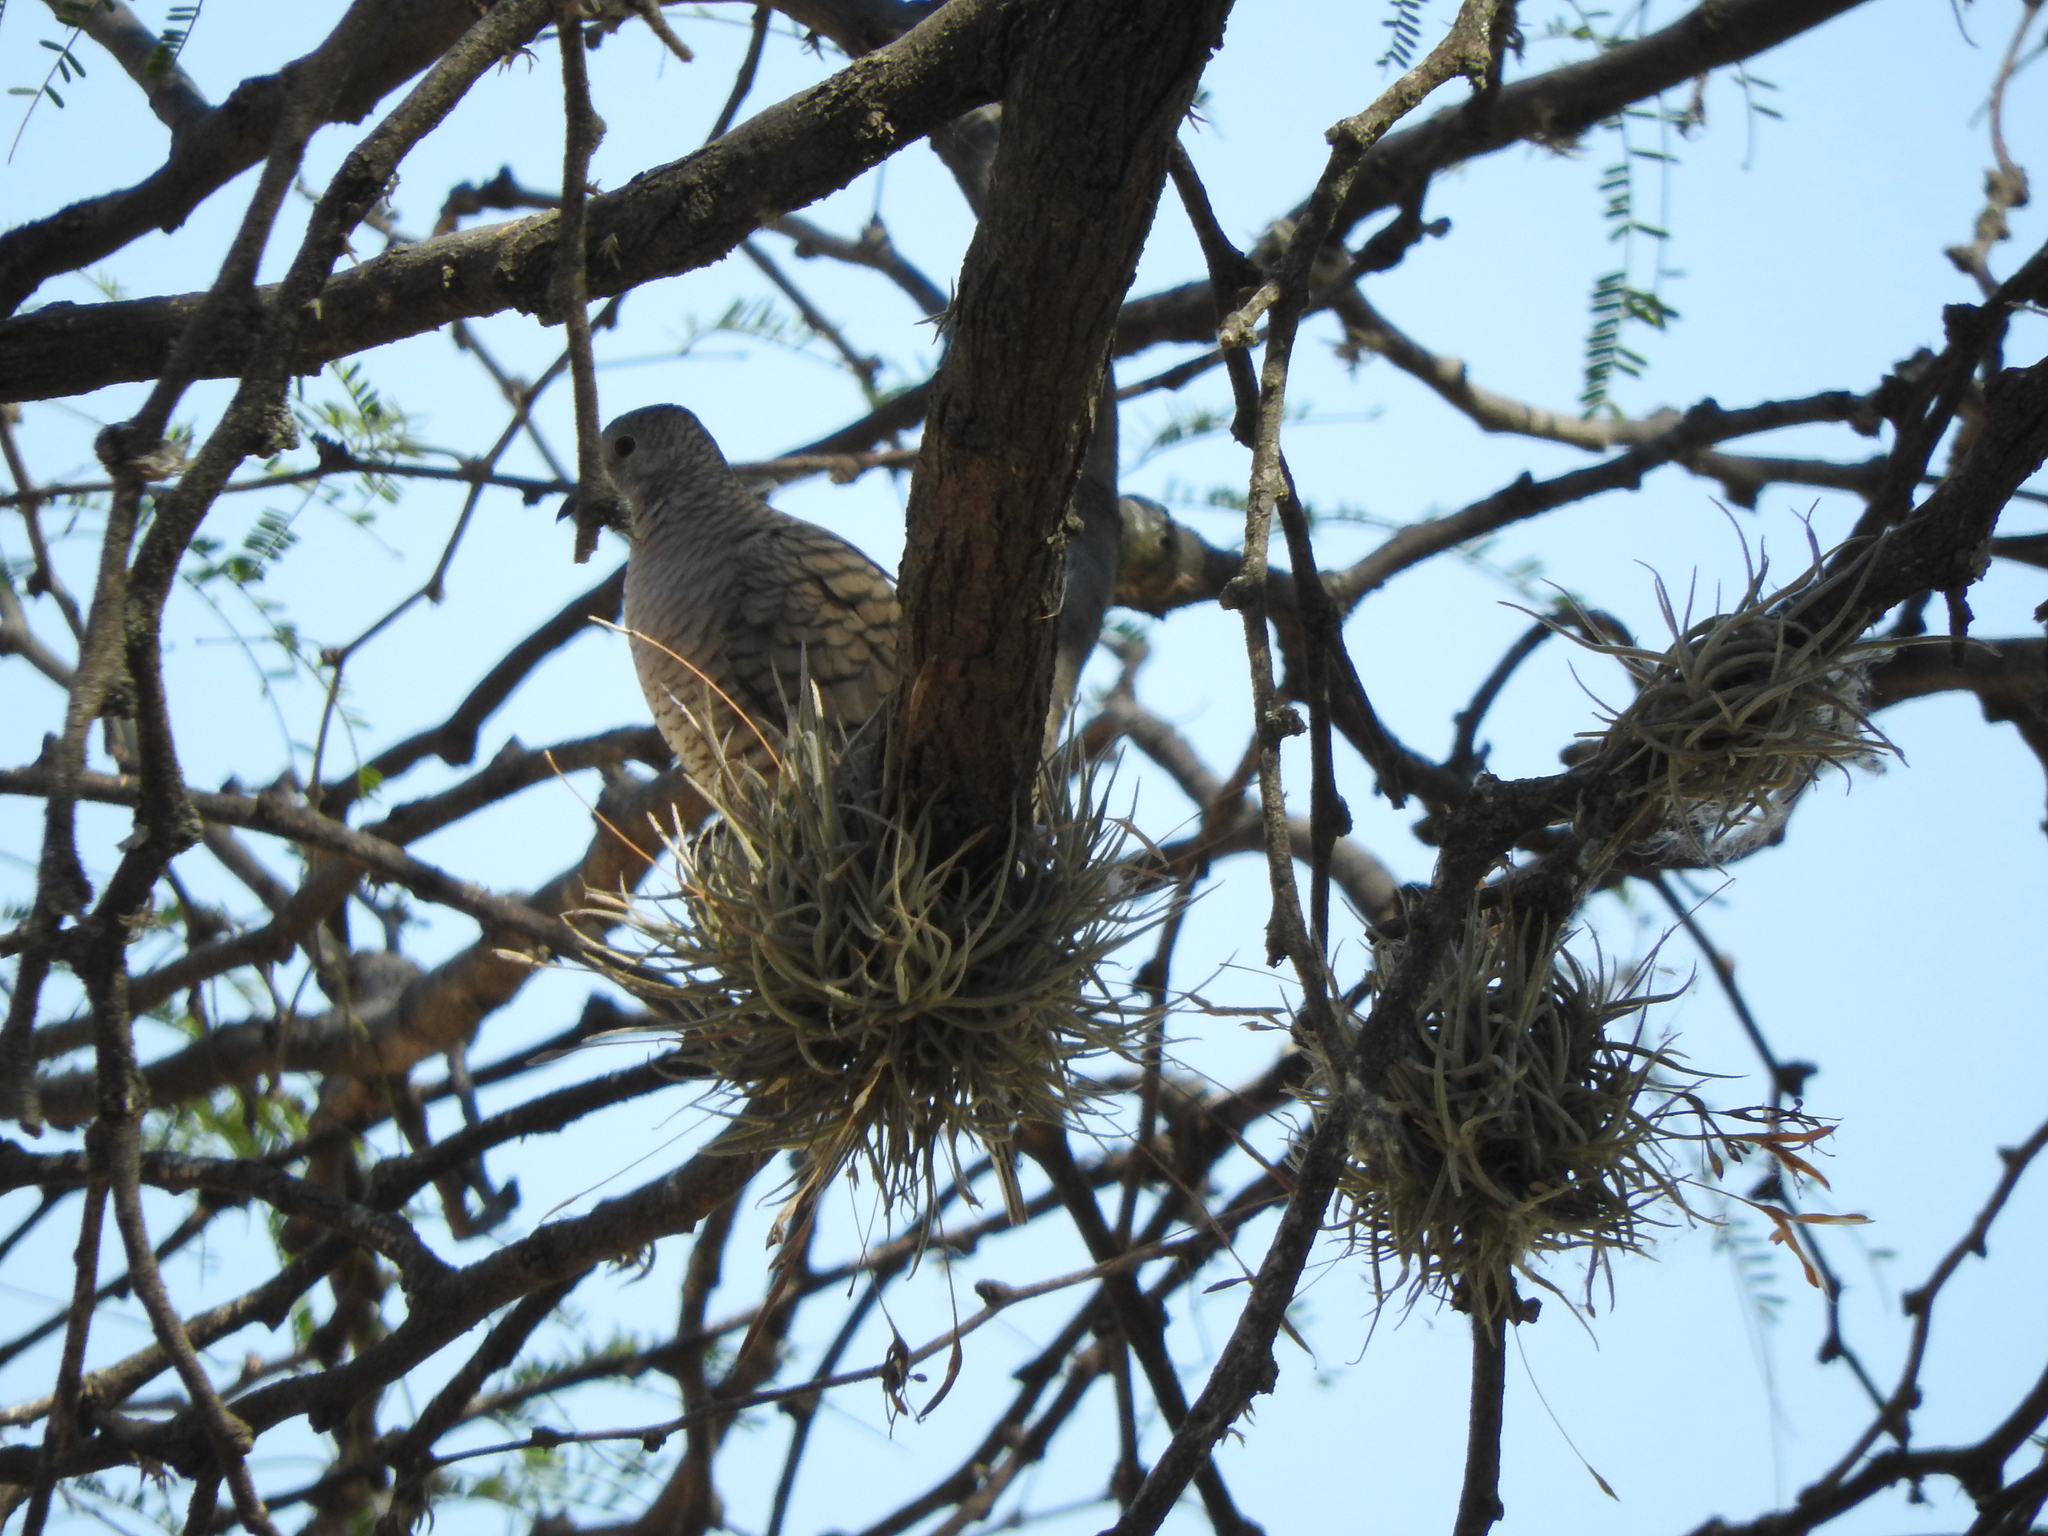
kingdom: Animalia
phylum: Chordata
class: Aves
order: Columbiformes
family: Columbidae
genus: Columbina
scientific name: Columbina inca
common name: Inca dove
